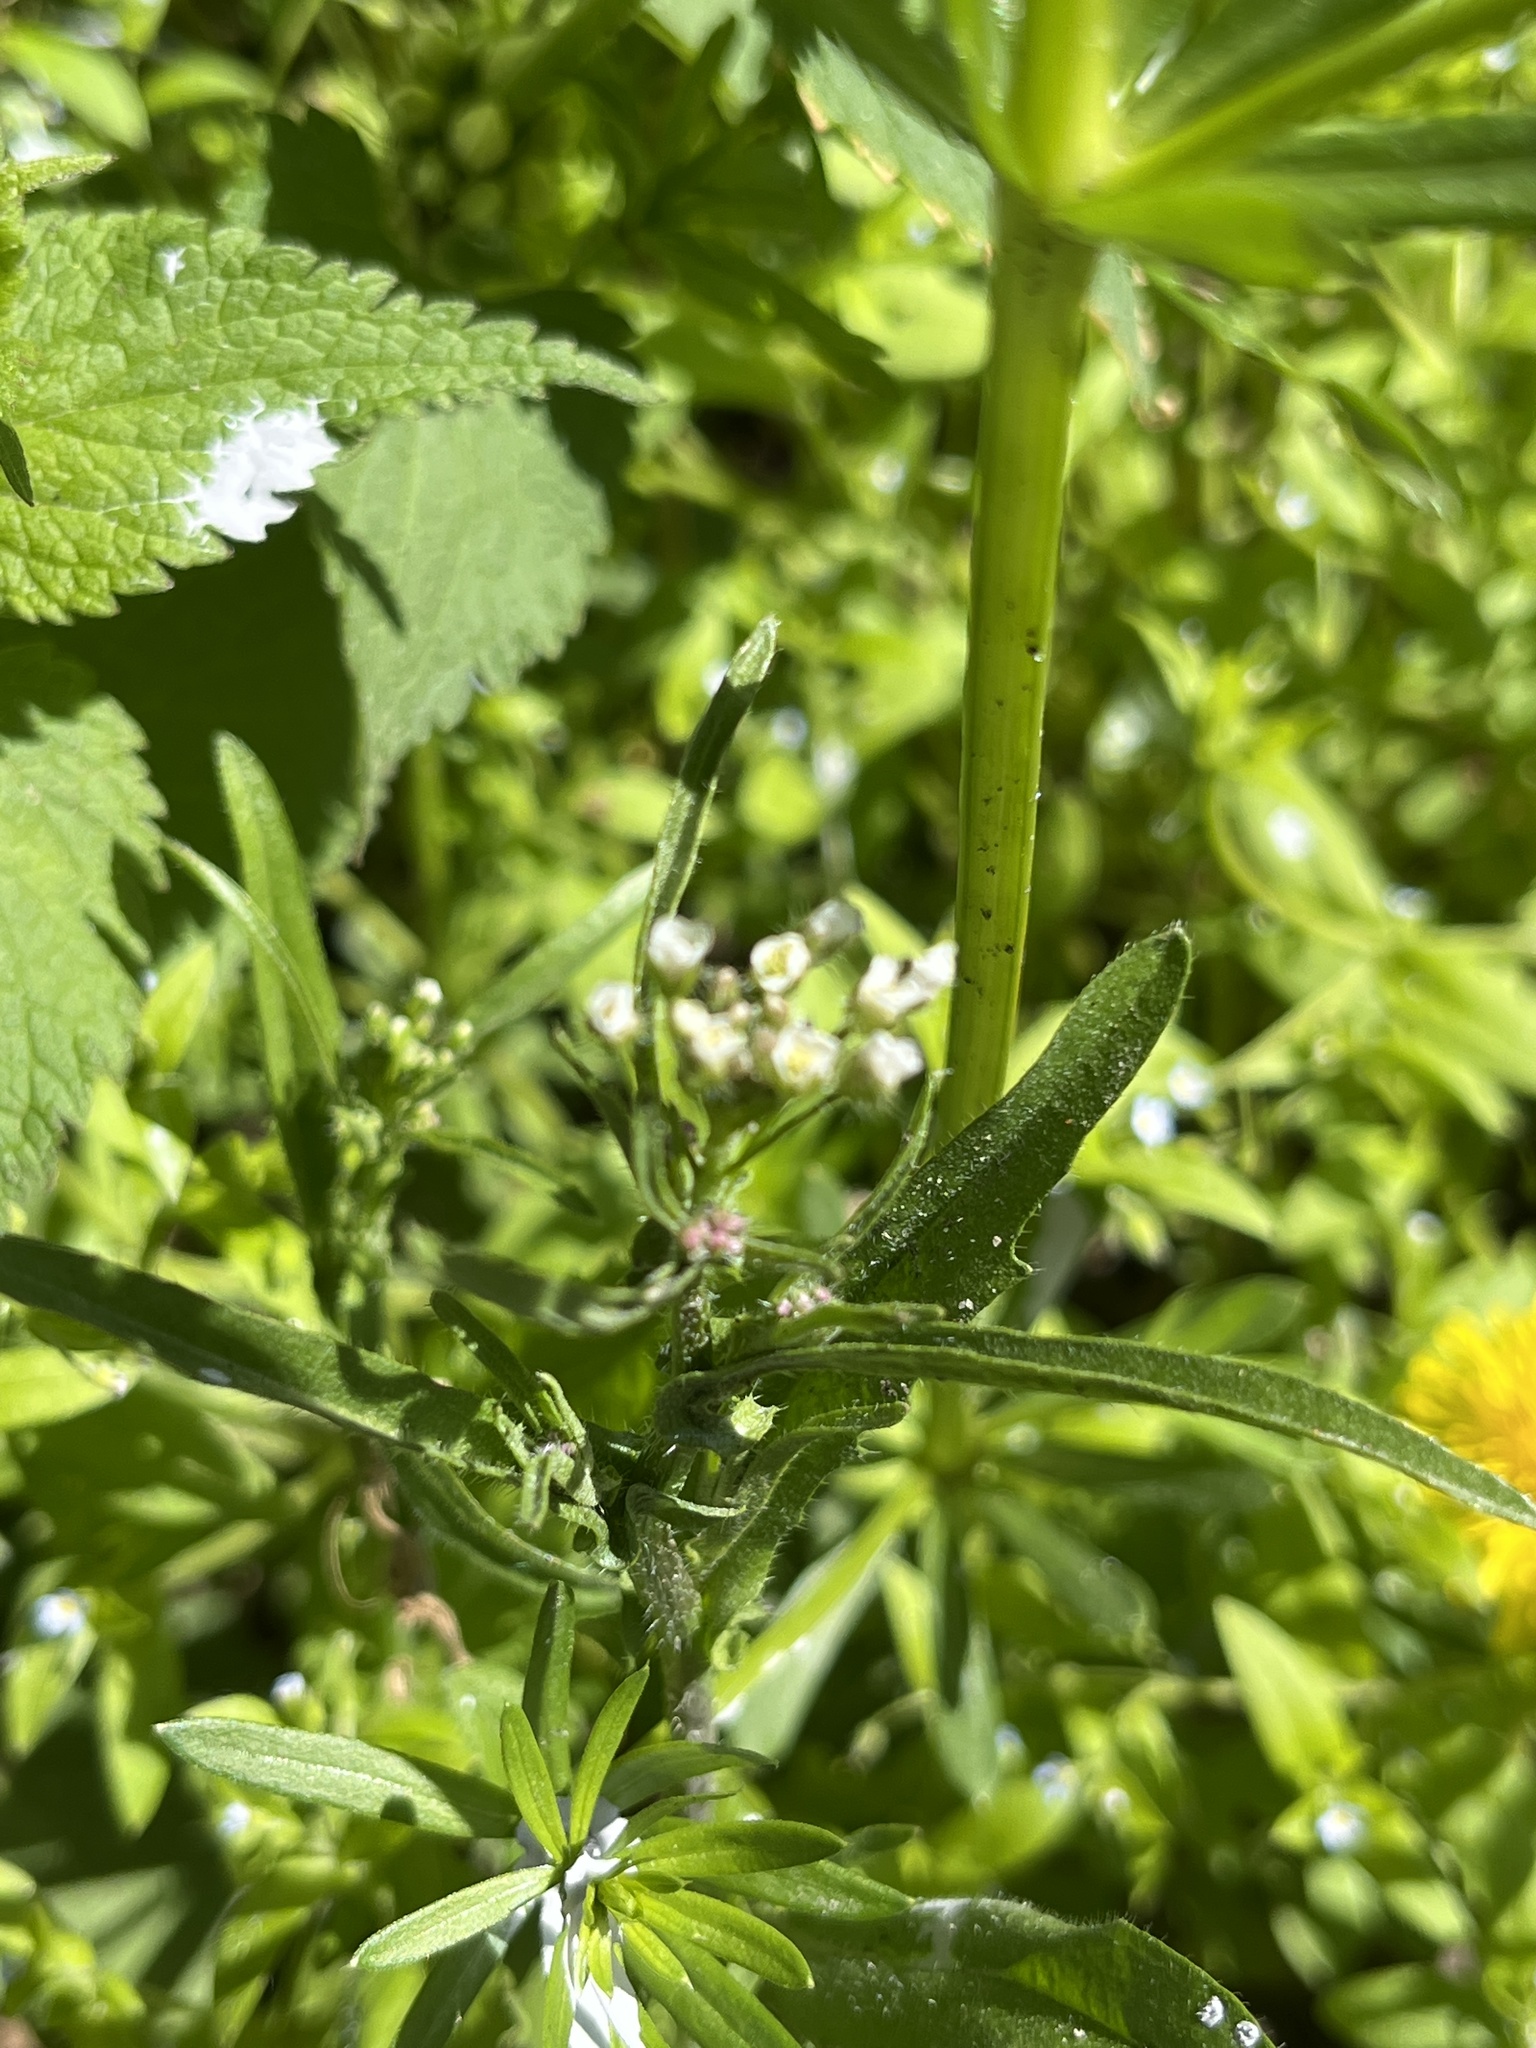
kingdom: Plantae
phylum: Tracheophyta
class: Magnoliopsida
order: Brassicales
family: Brassicaceae
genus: Capsella
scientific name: Capsella bursa-pastoris
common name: Shepherd's purse
